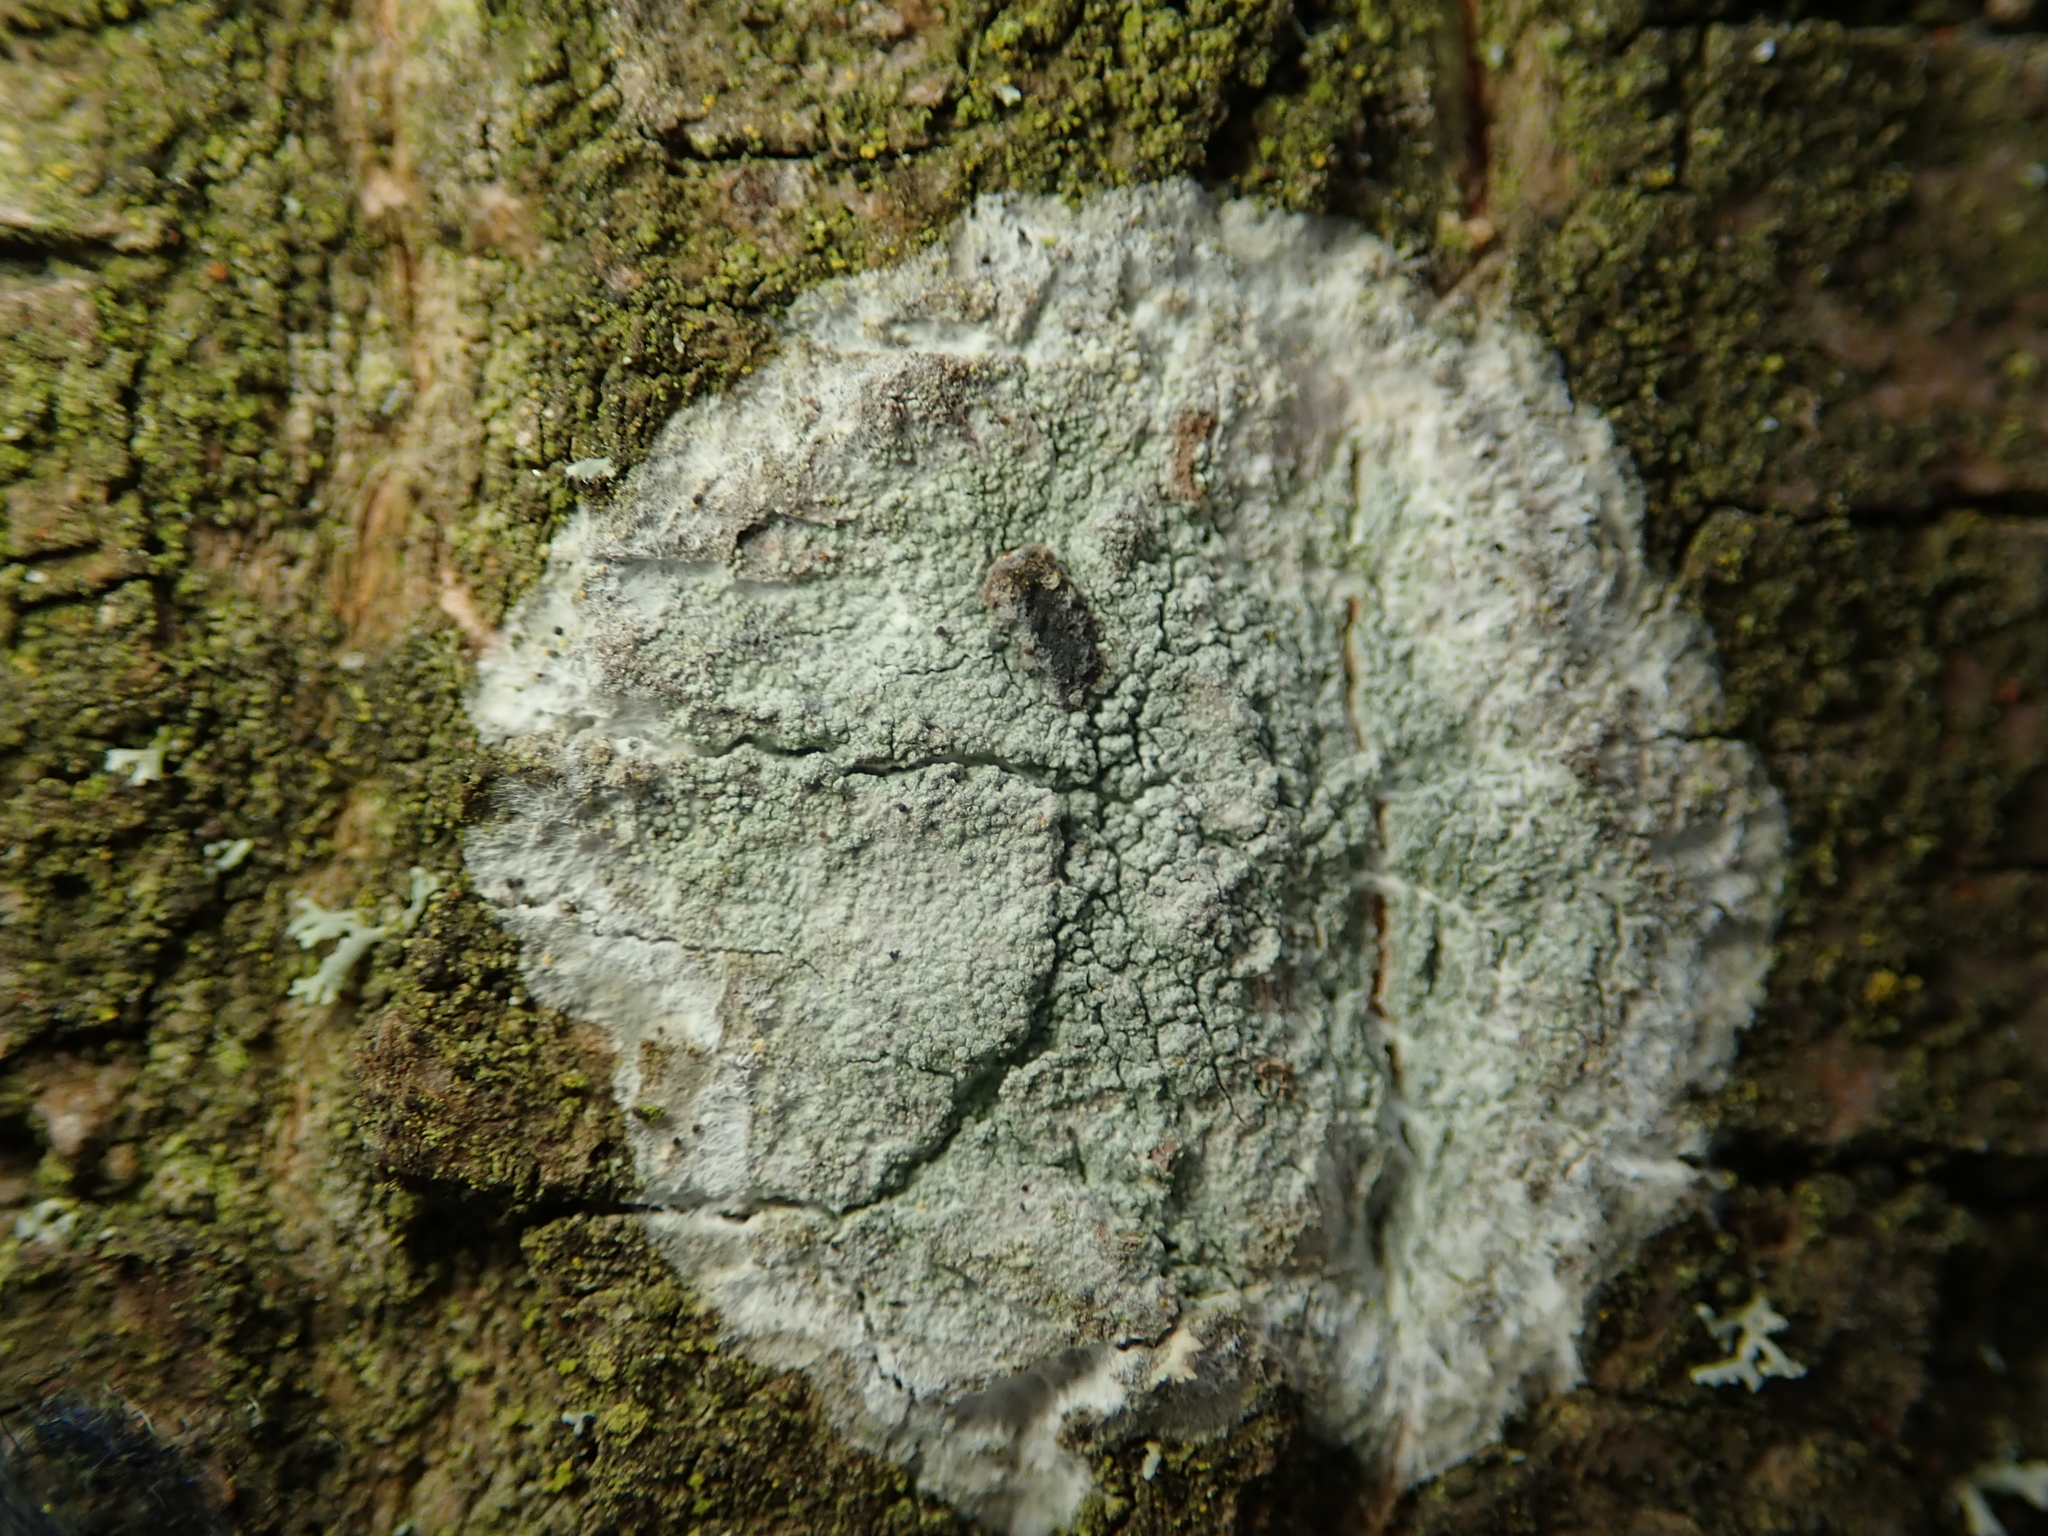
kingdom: Fungi
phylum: Ascomycota
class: Lecanoromycetes
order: Ostropales
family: Phlyctidaceae
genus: Phlyctis
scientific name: Phlyctis argena
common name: Whitewash lichen
